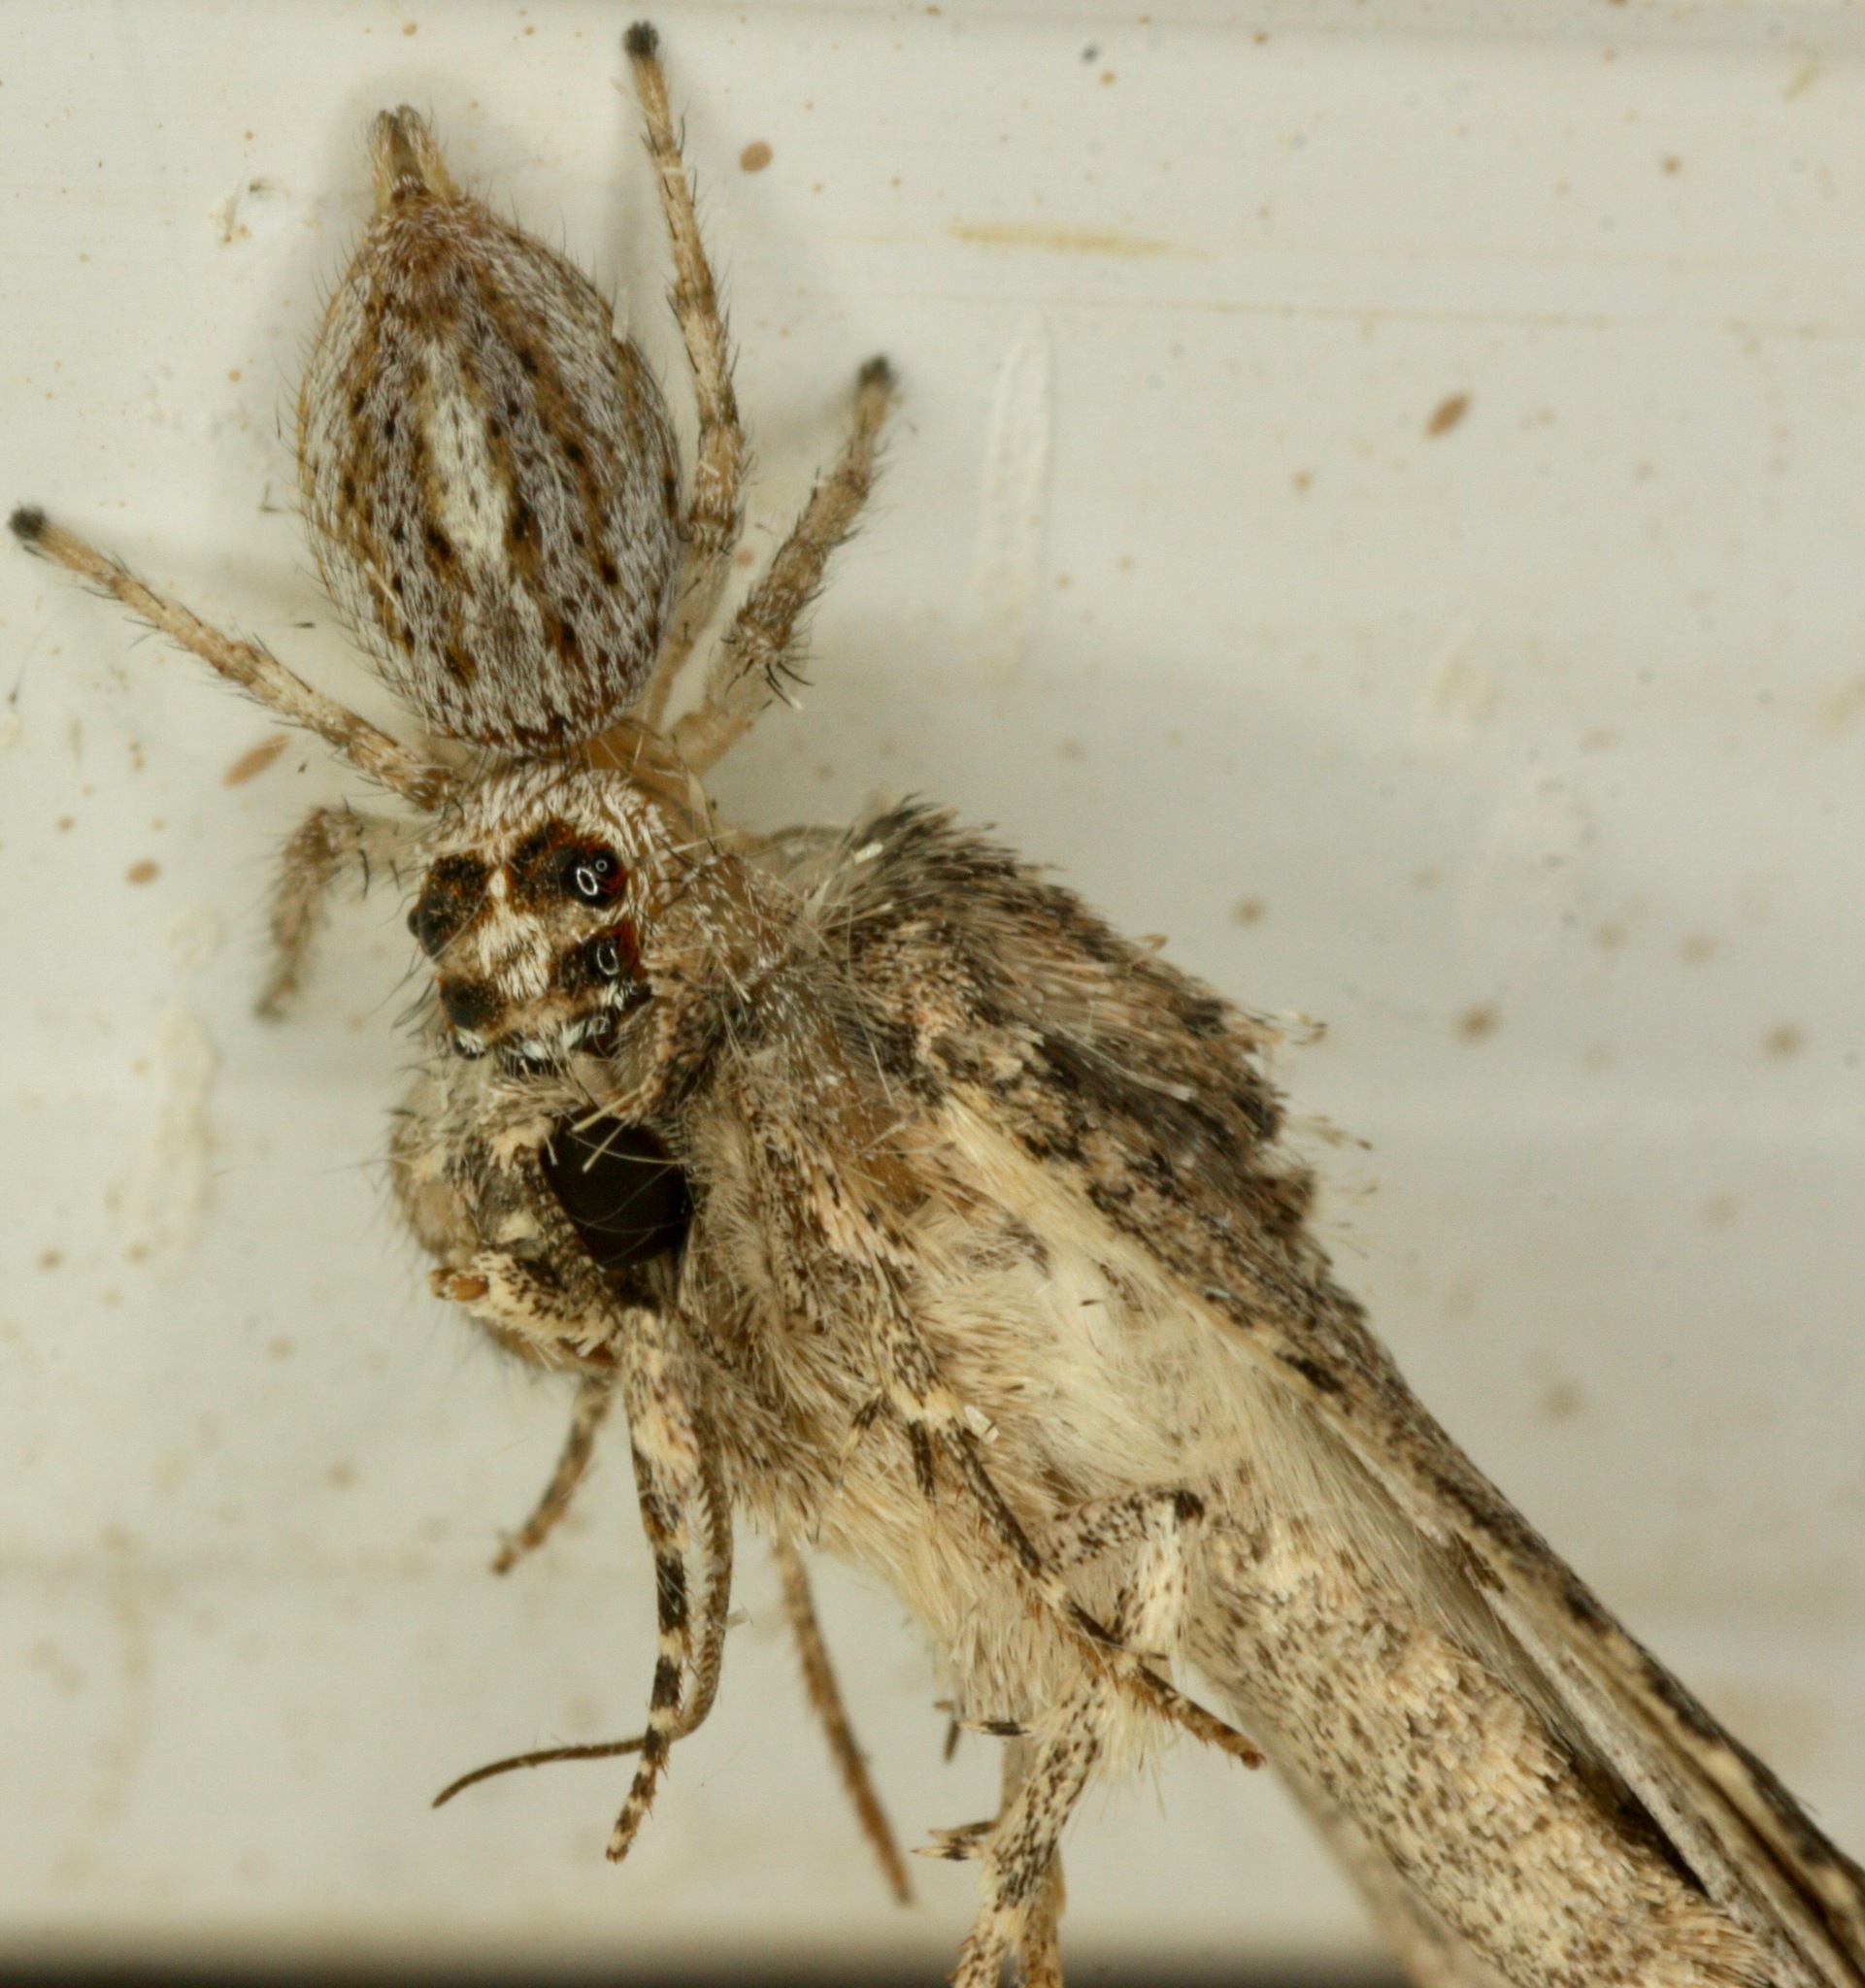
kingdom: Animalia
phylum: Arthropoda
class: Arachnida
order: Araneae
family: Salticidae
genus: Colonus
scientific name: Colonus hesperus
